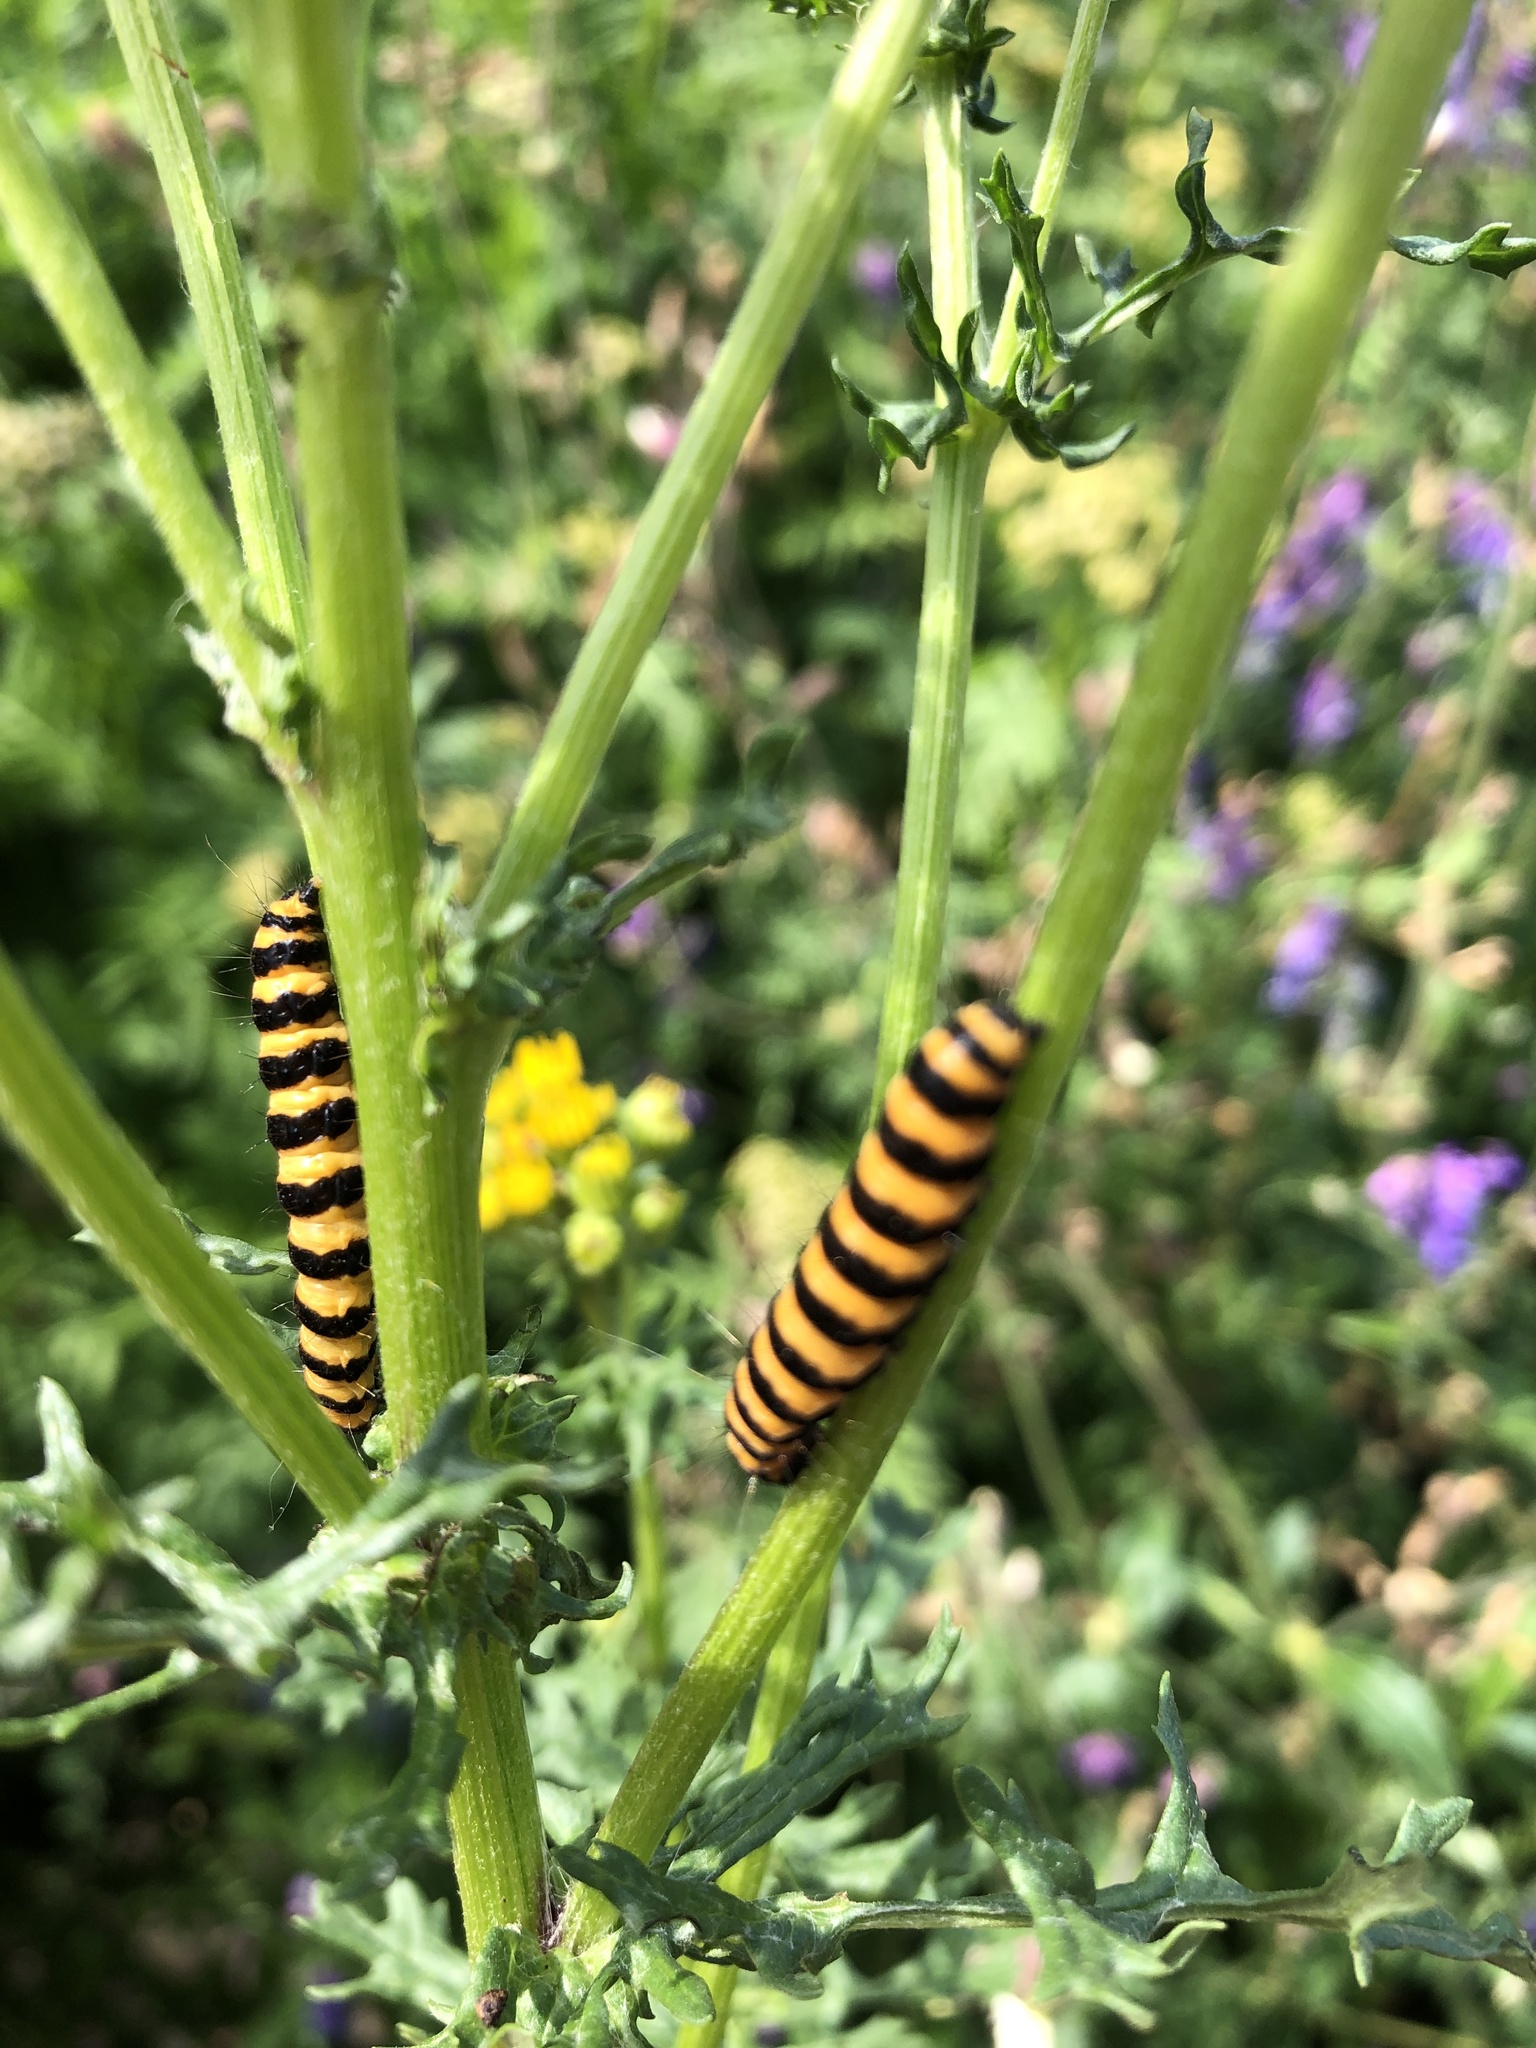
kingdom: Animalia
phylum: Arthropoda
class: Insecta
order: Lepidoptera
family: Erebidae
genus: Tyria
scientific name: Tyria jacobaeae
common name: Cinnabar
